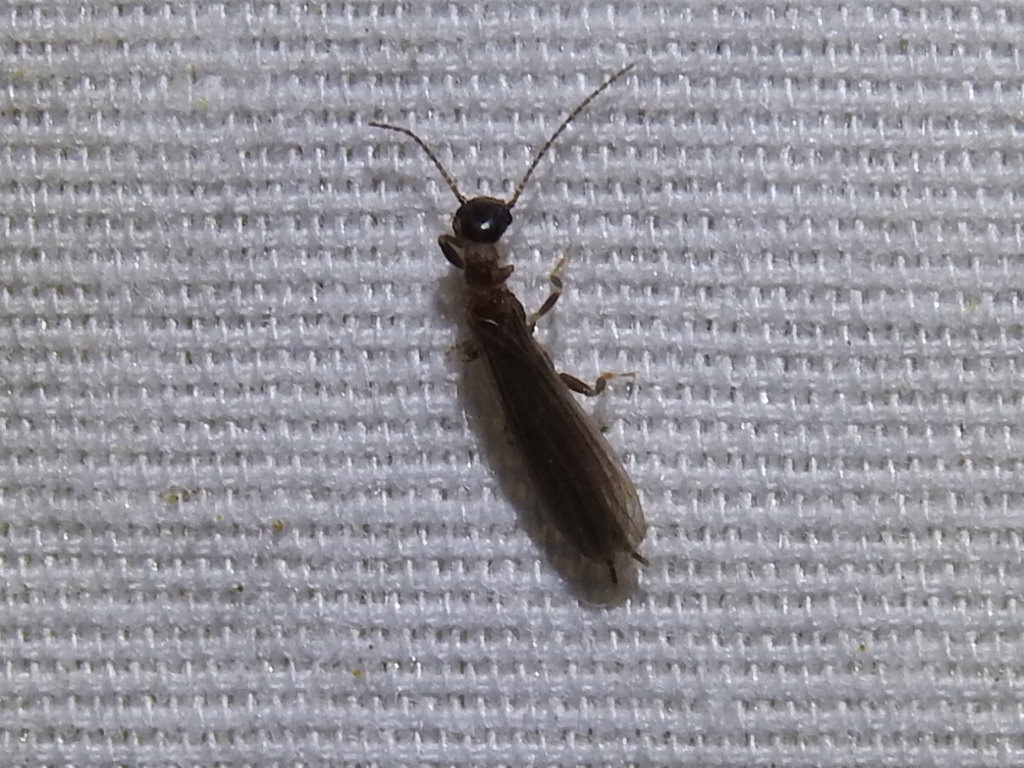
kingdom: Animalia
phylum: Arthropoda
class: Insecta
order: Embioptera
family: Oligotomidae
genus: Oligotoma
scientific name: Oligotoma nigra
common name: Black webspinner
